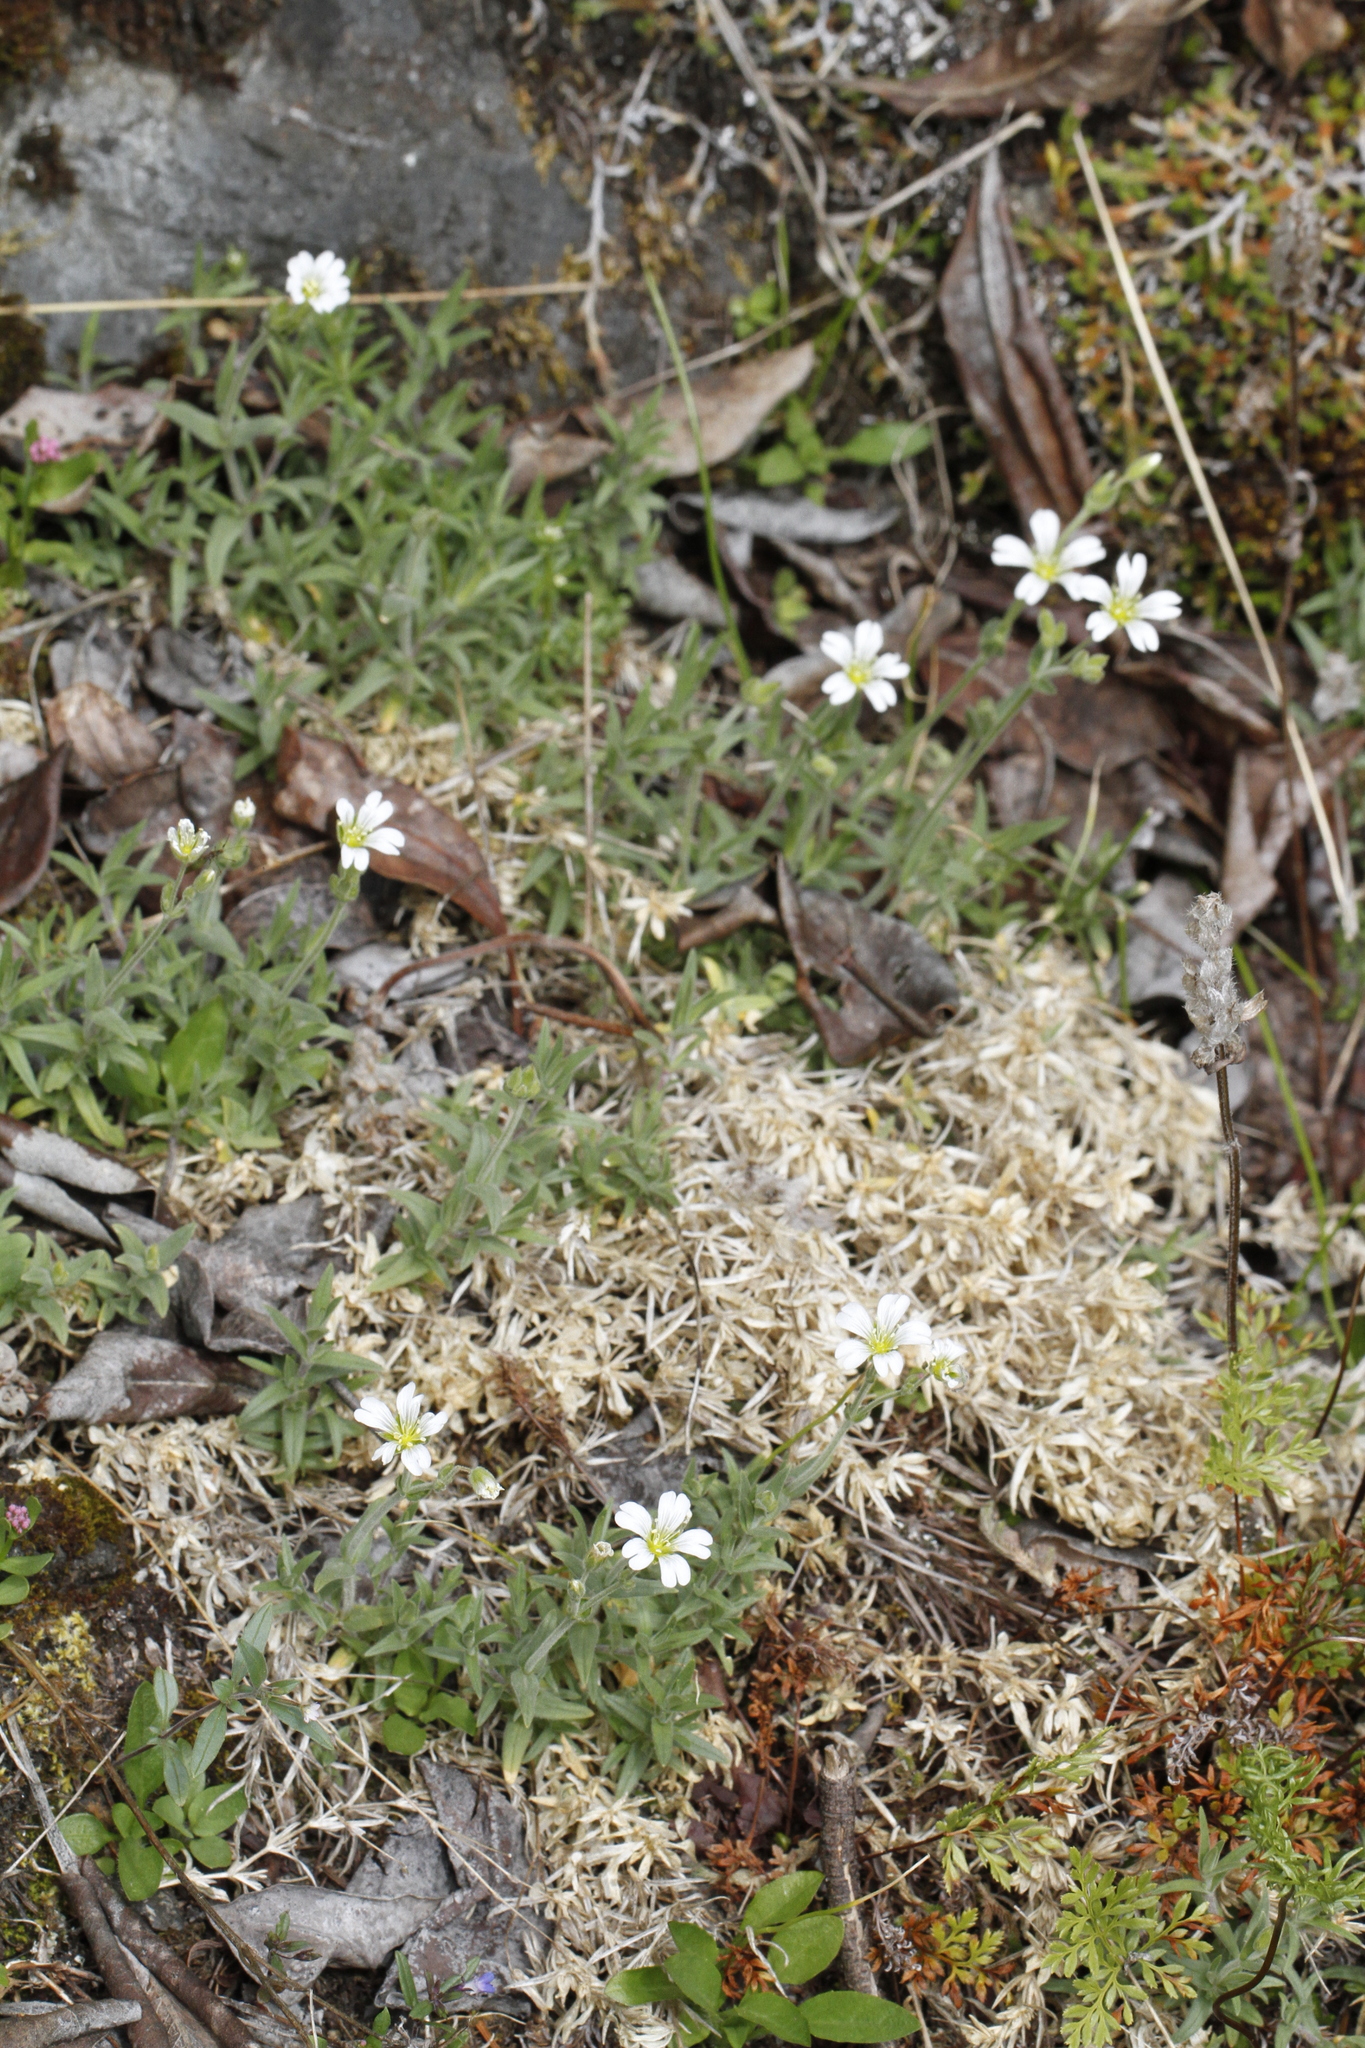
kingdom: Plantae
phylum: Tracheophyta
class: Magnoliopsida
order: Caryophyllales
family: Caryophyllaceae
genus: Cerastium
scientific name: Cerastium arvense
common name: Field mouse-ear
